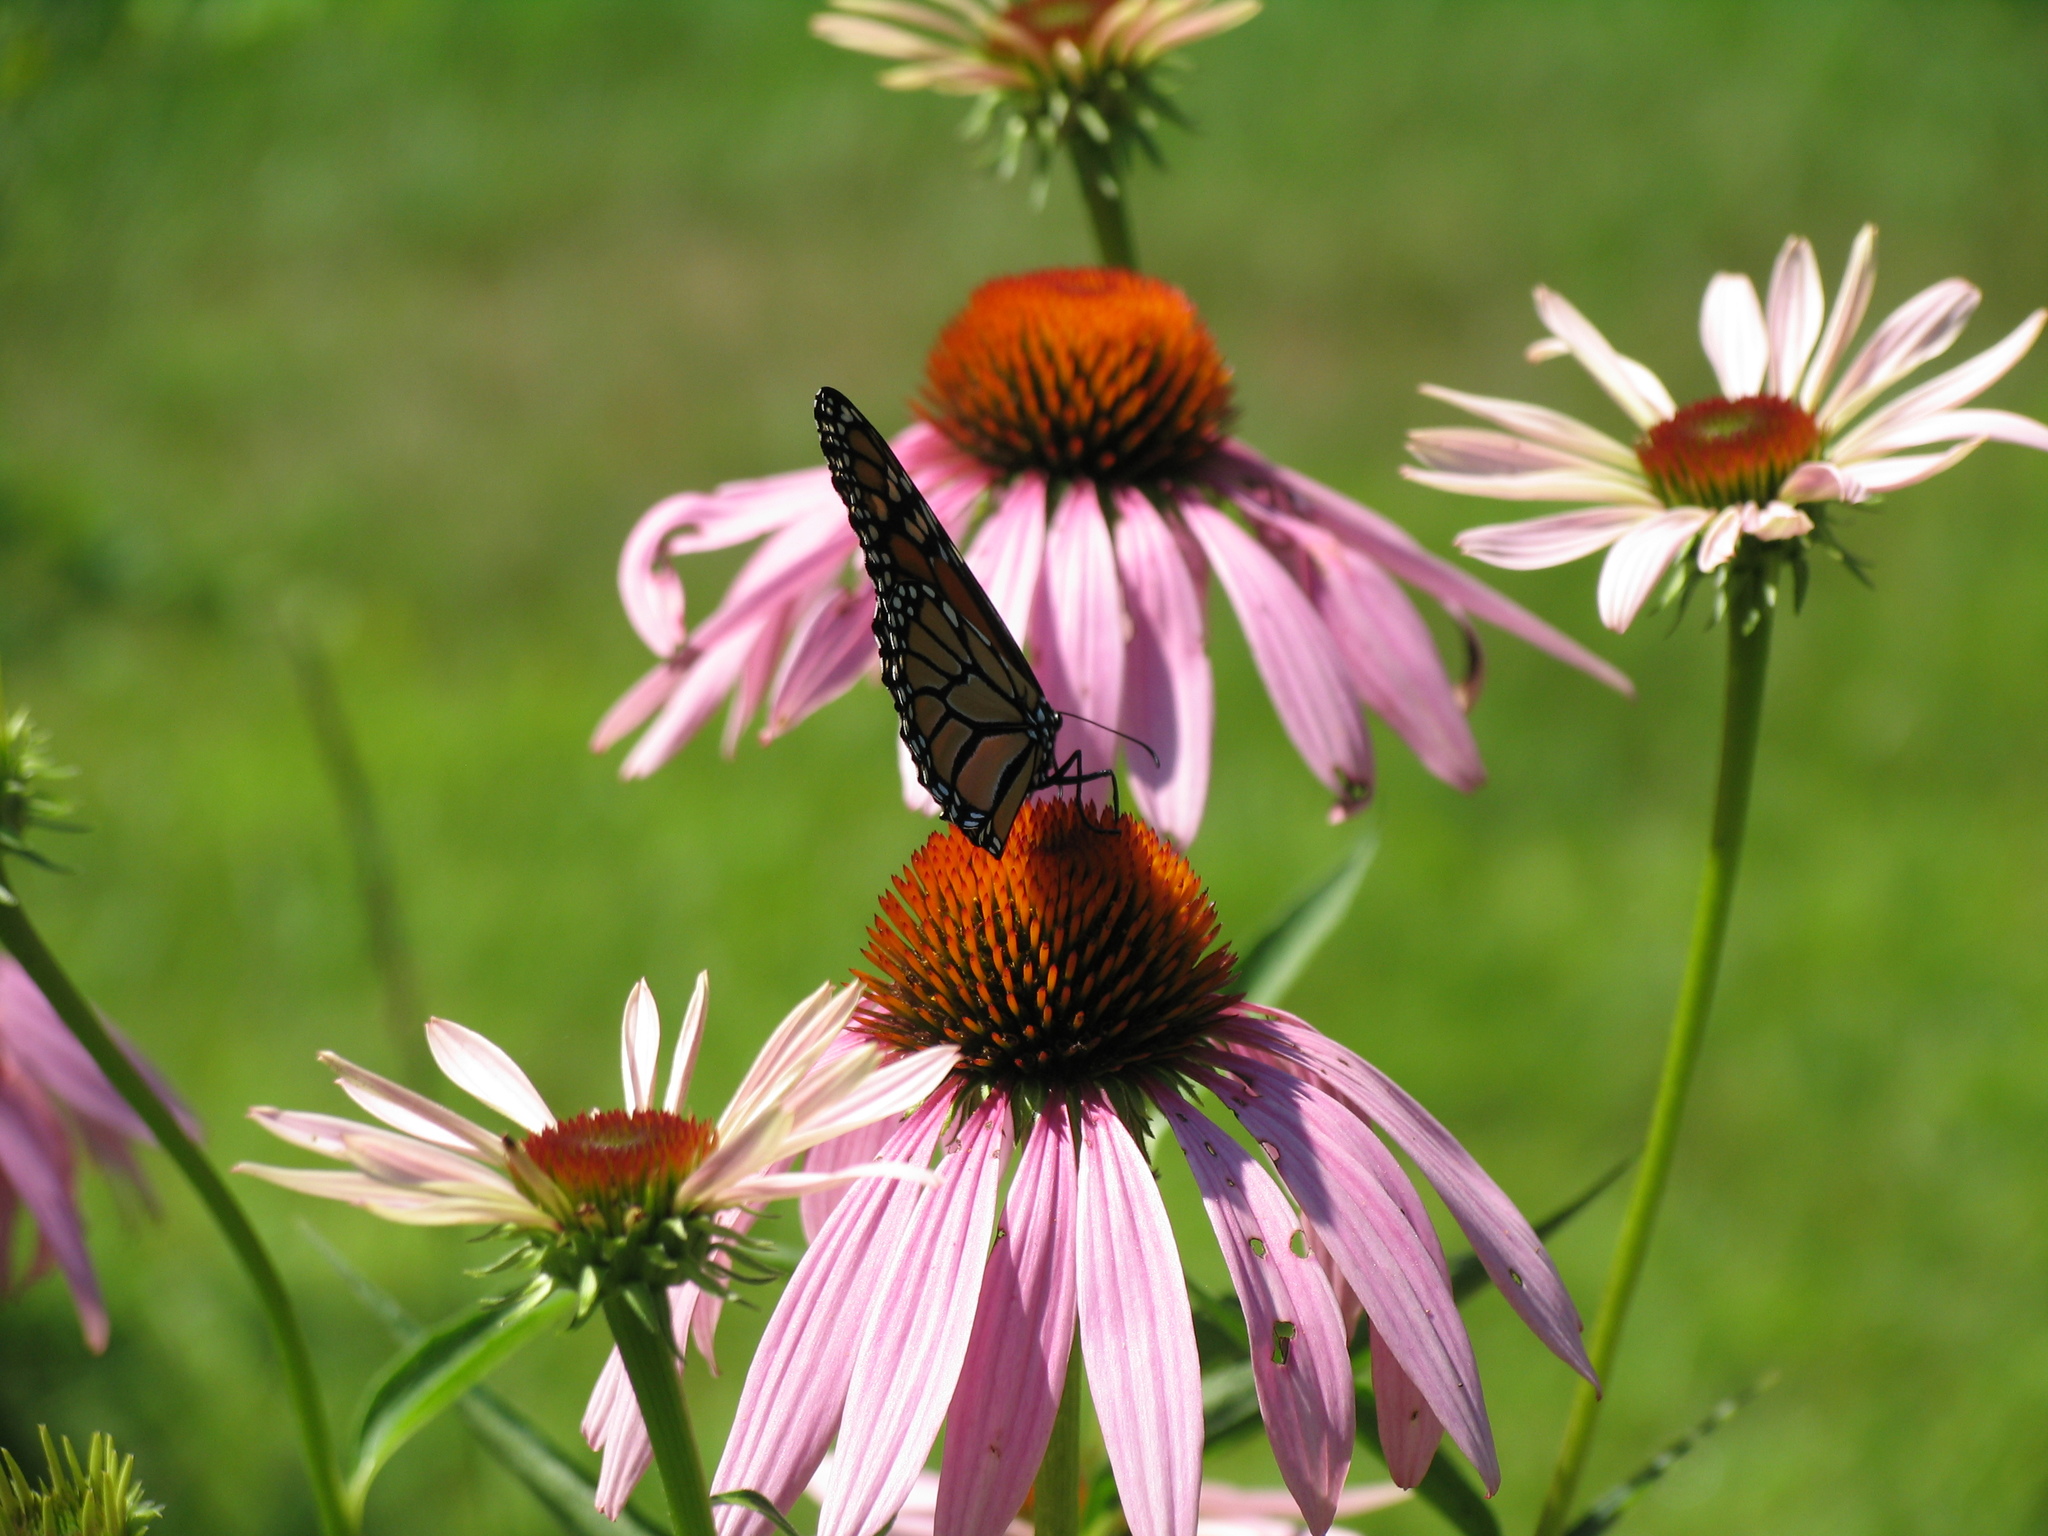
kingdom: Animalia
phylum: Arthropoda
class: Insecta
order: Lepidoptera
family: Nymphalidae
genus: Danaus
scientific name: Danaus plexippus
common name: Monarch
